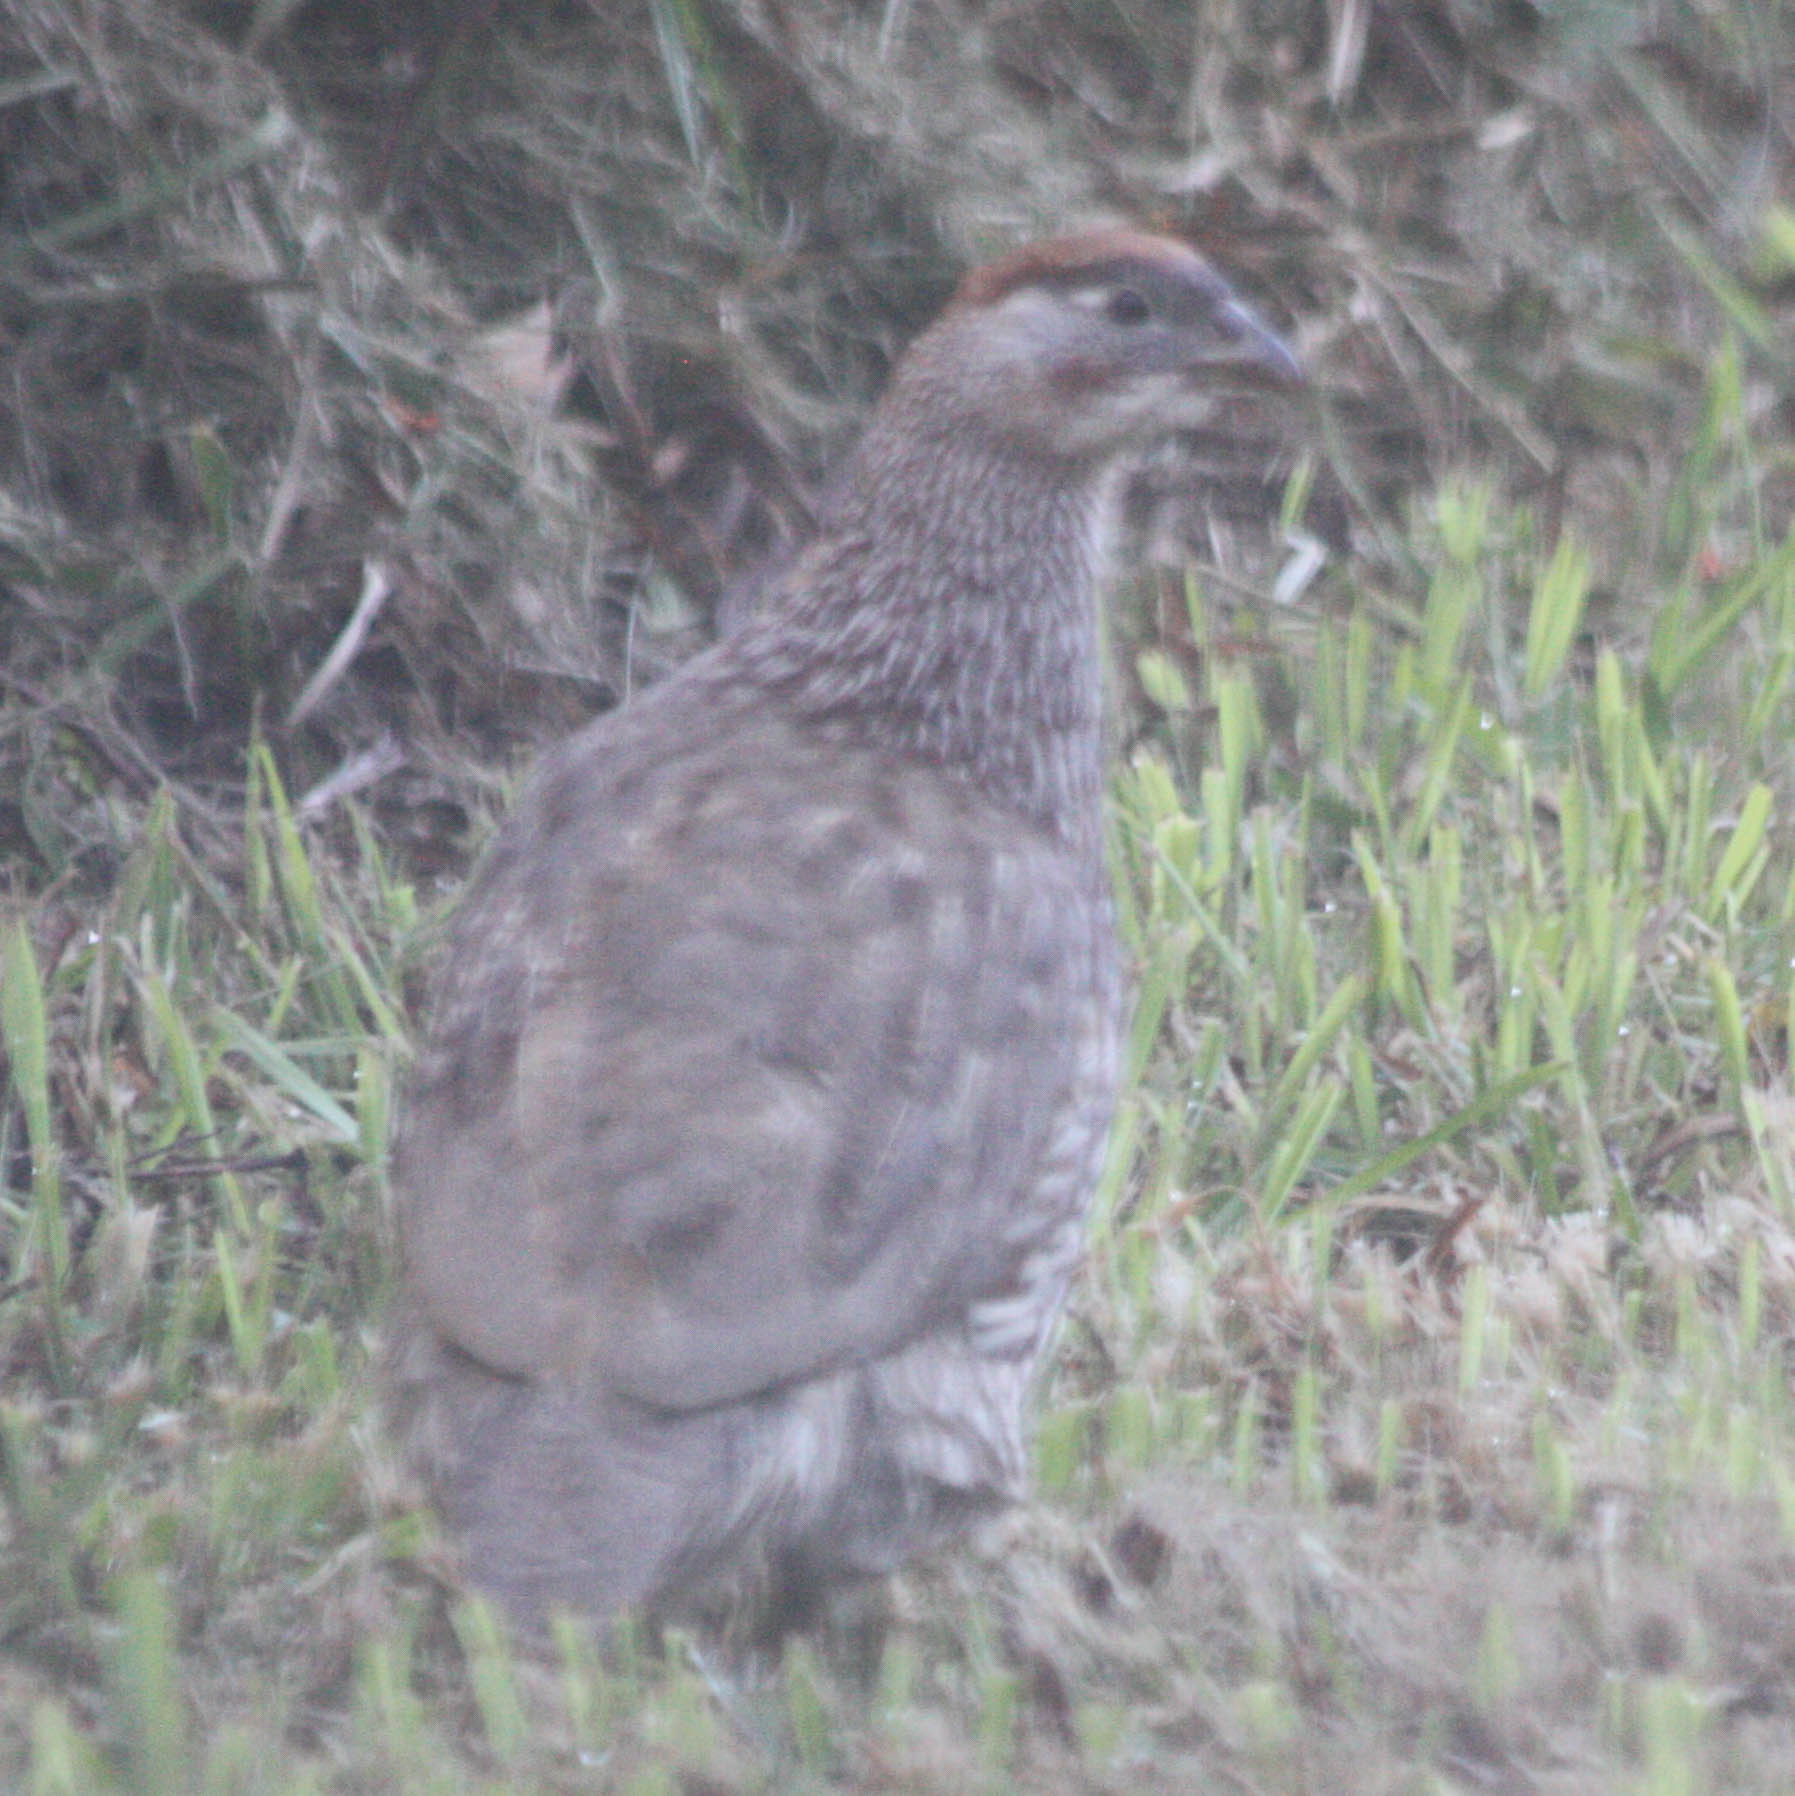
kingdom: Animalia
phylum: Chordata
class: Aves
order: Galliformes
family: Phasianidae
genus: Pternistis
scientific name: Pternistis erckelii
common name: Erckel's francolin
